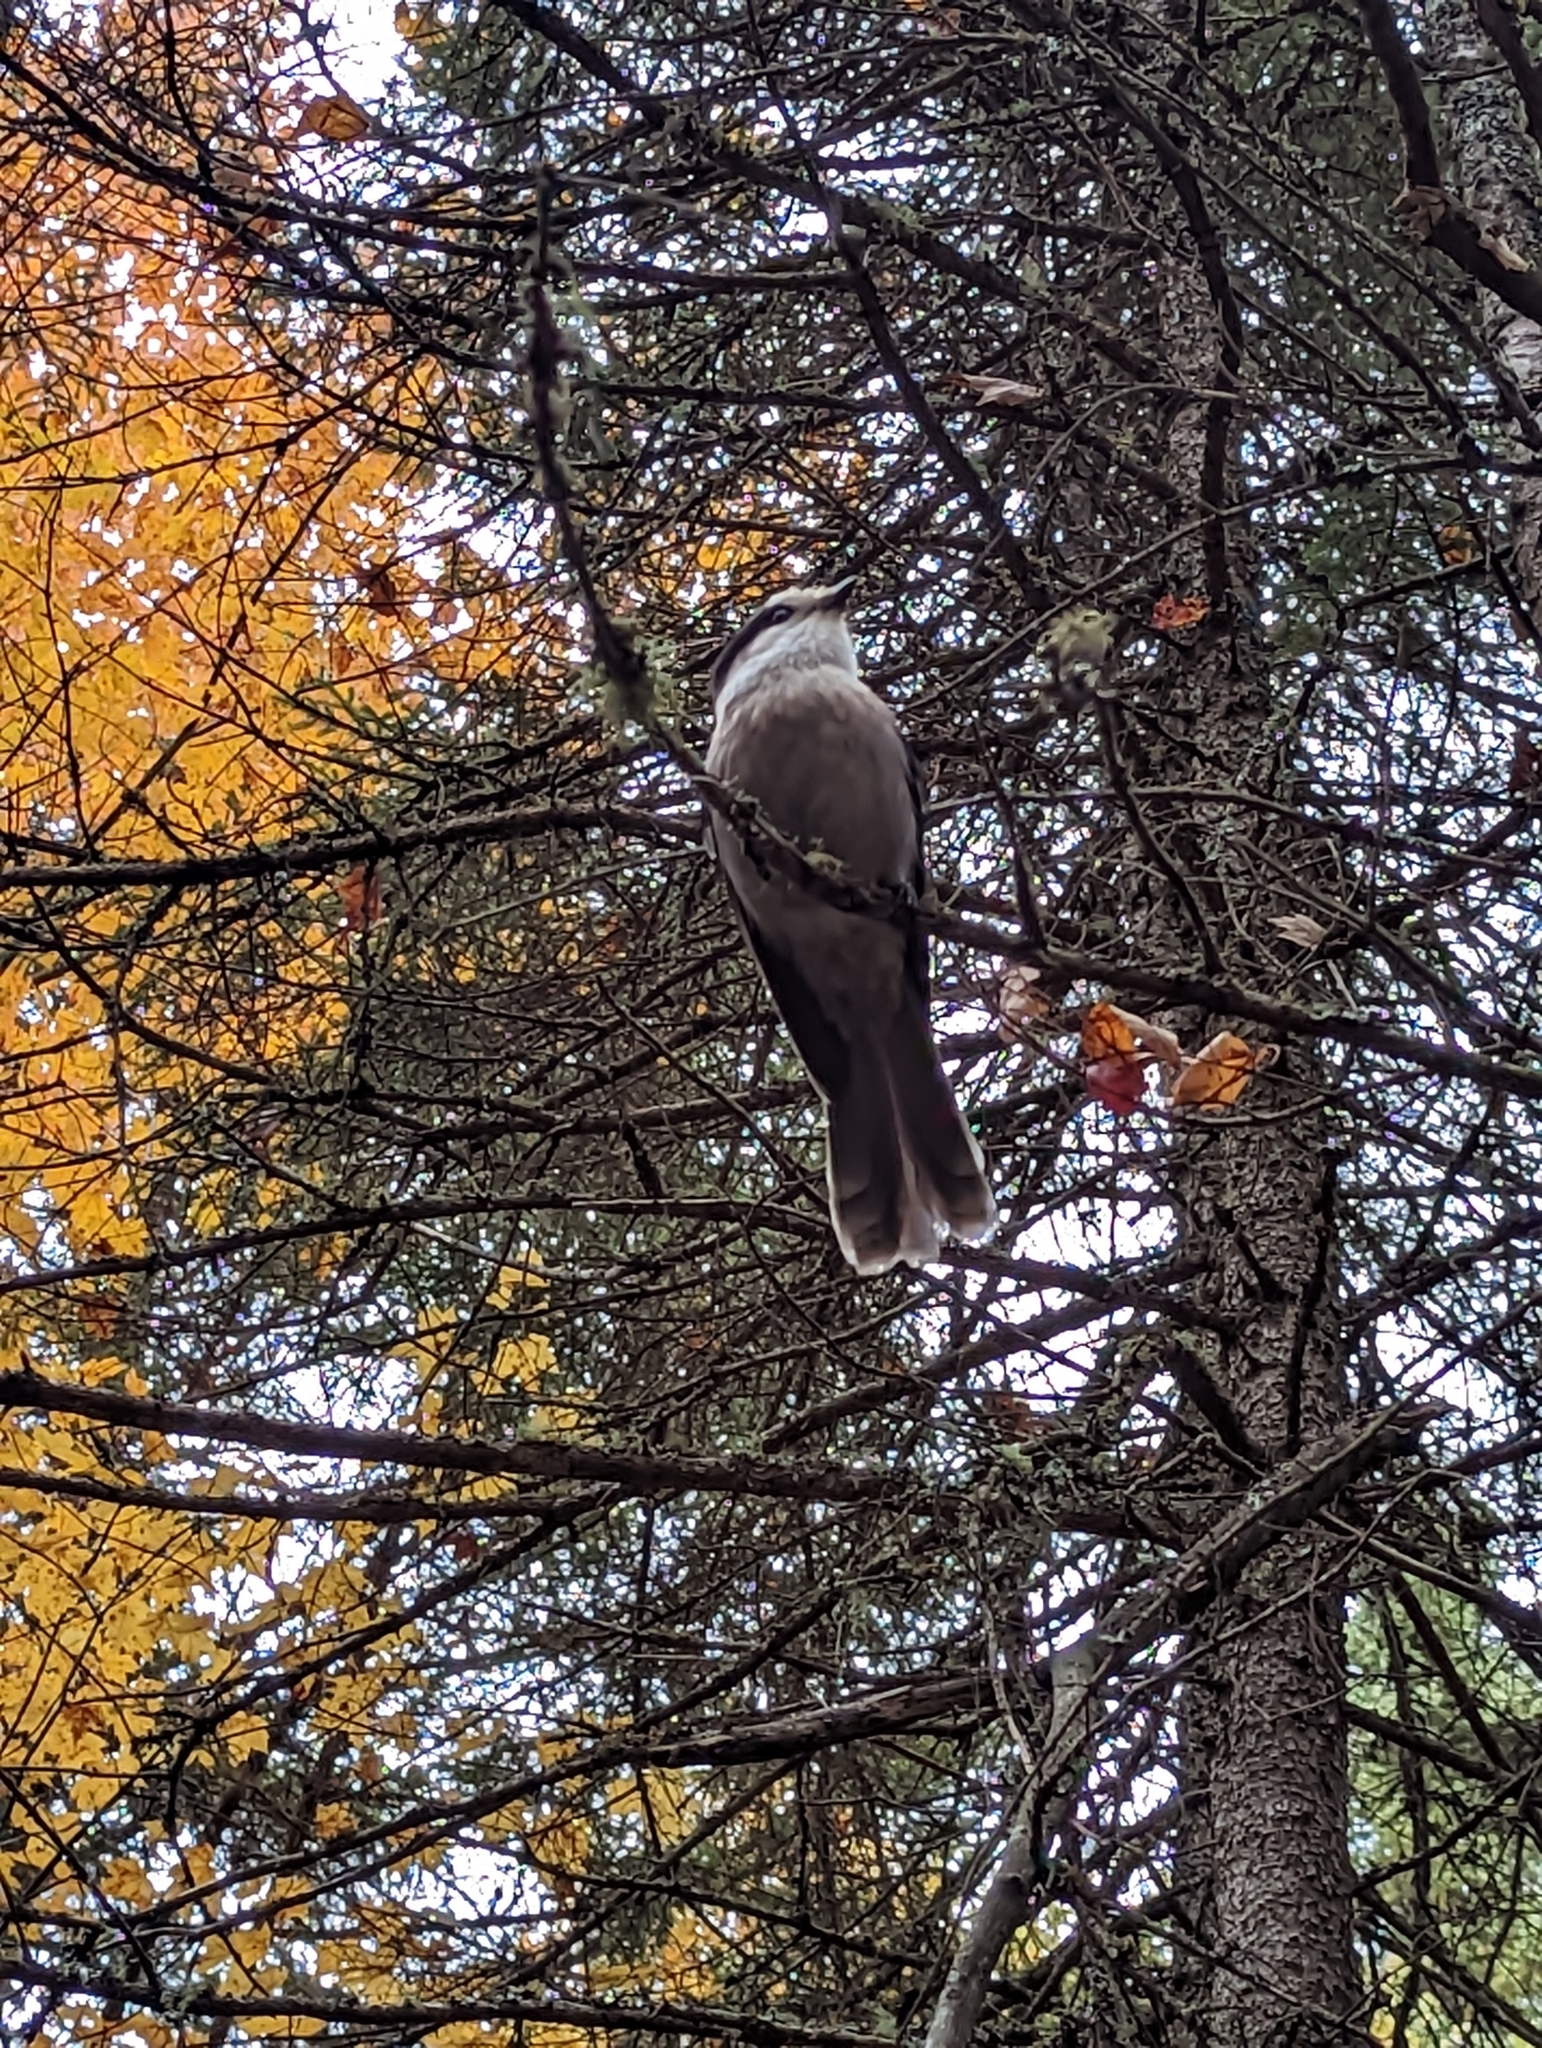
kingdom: Animalia
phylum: Chordata
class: Aves
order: Passeriformes
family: Corvidae
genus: Perisoreus
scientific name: Perisoreus canadensis
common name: Gray jay
